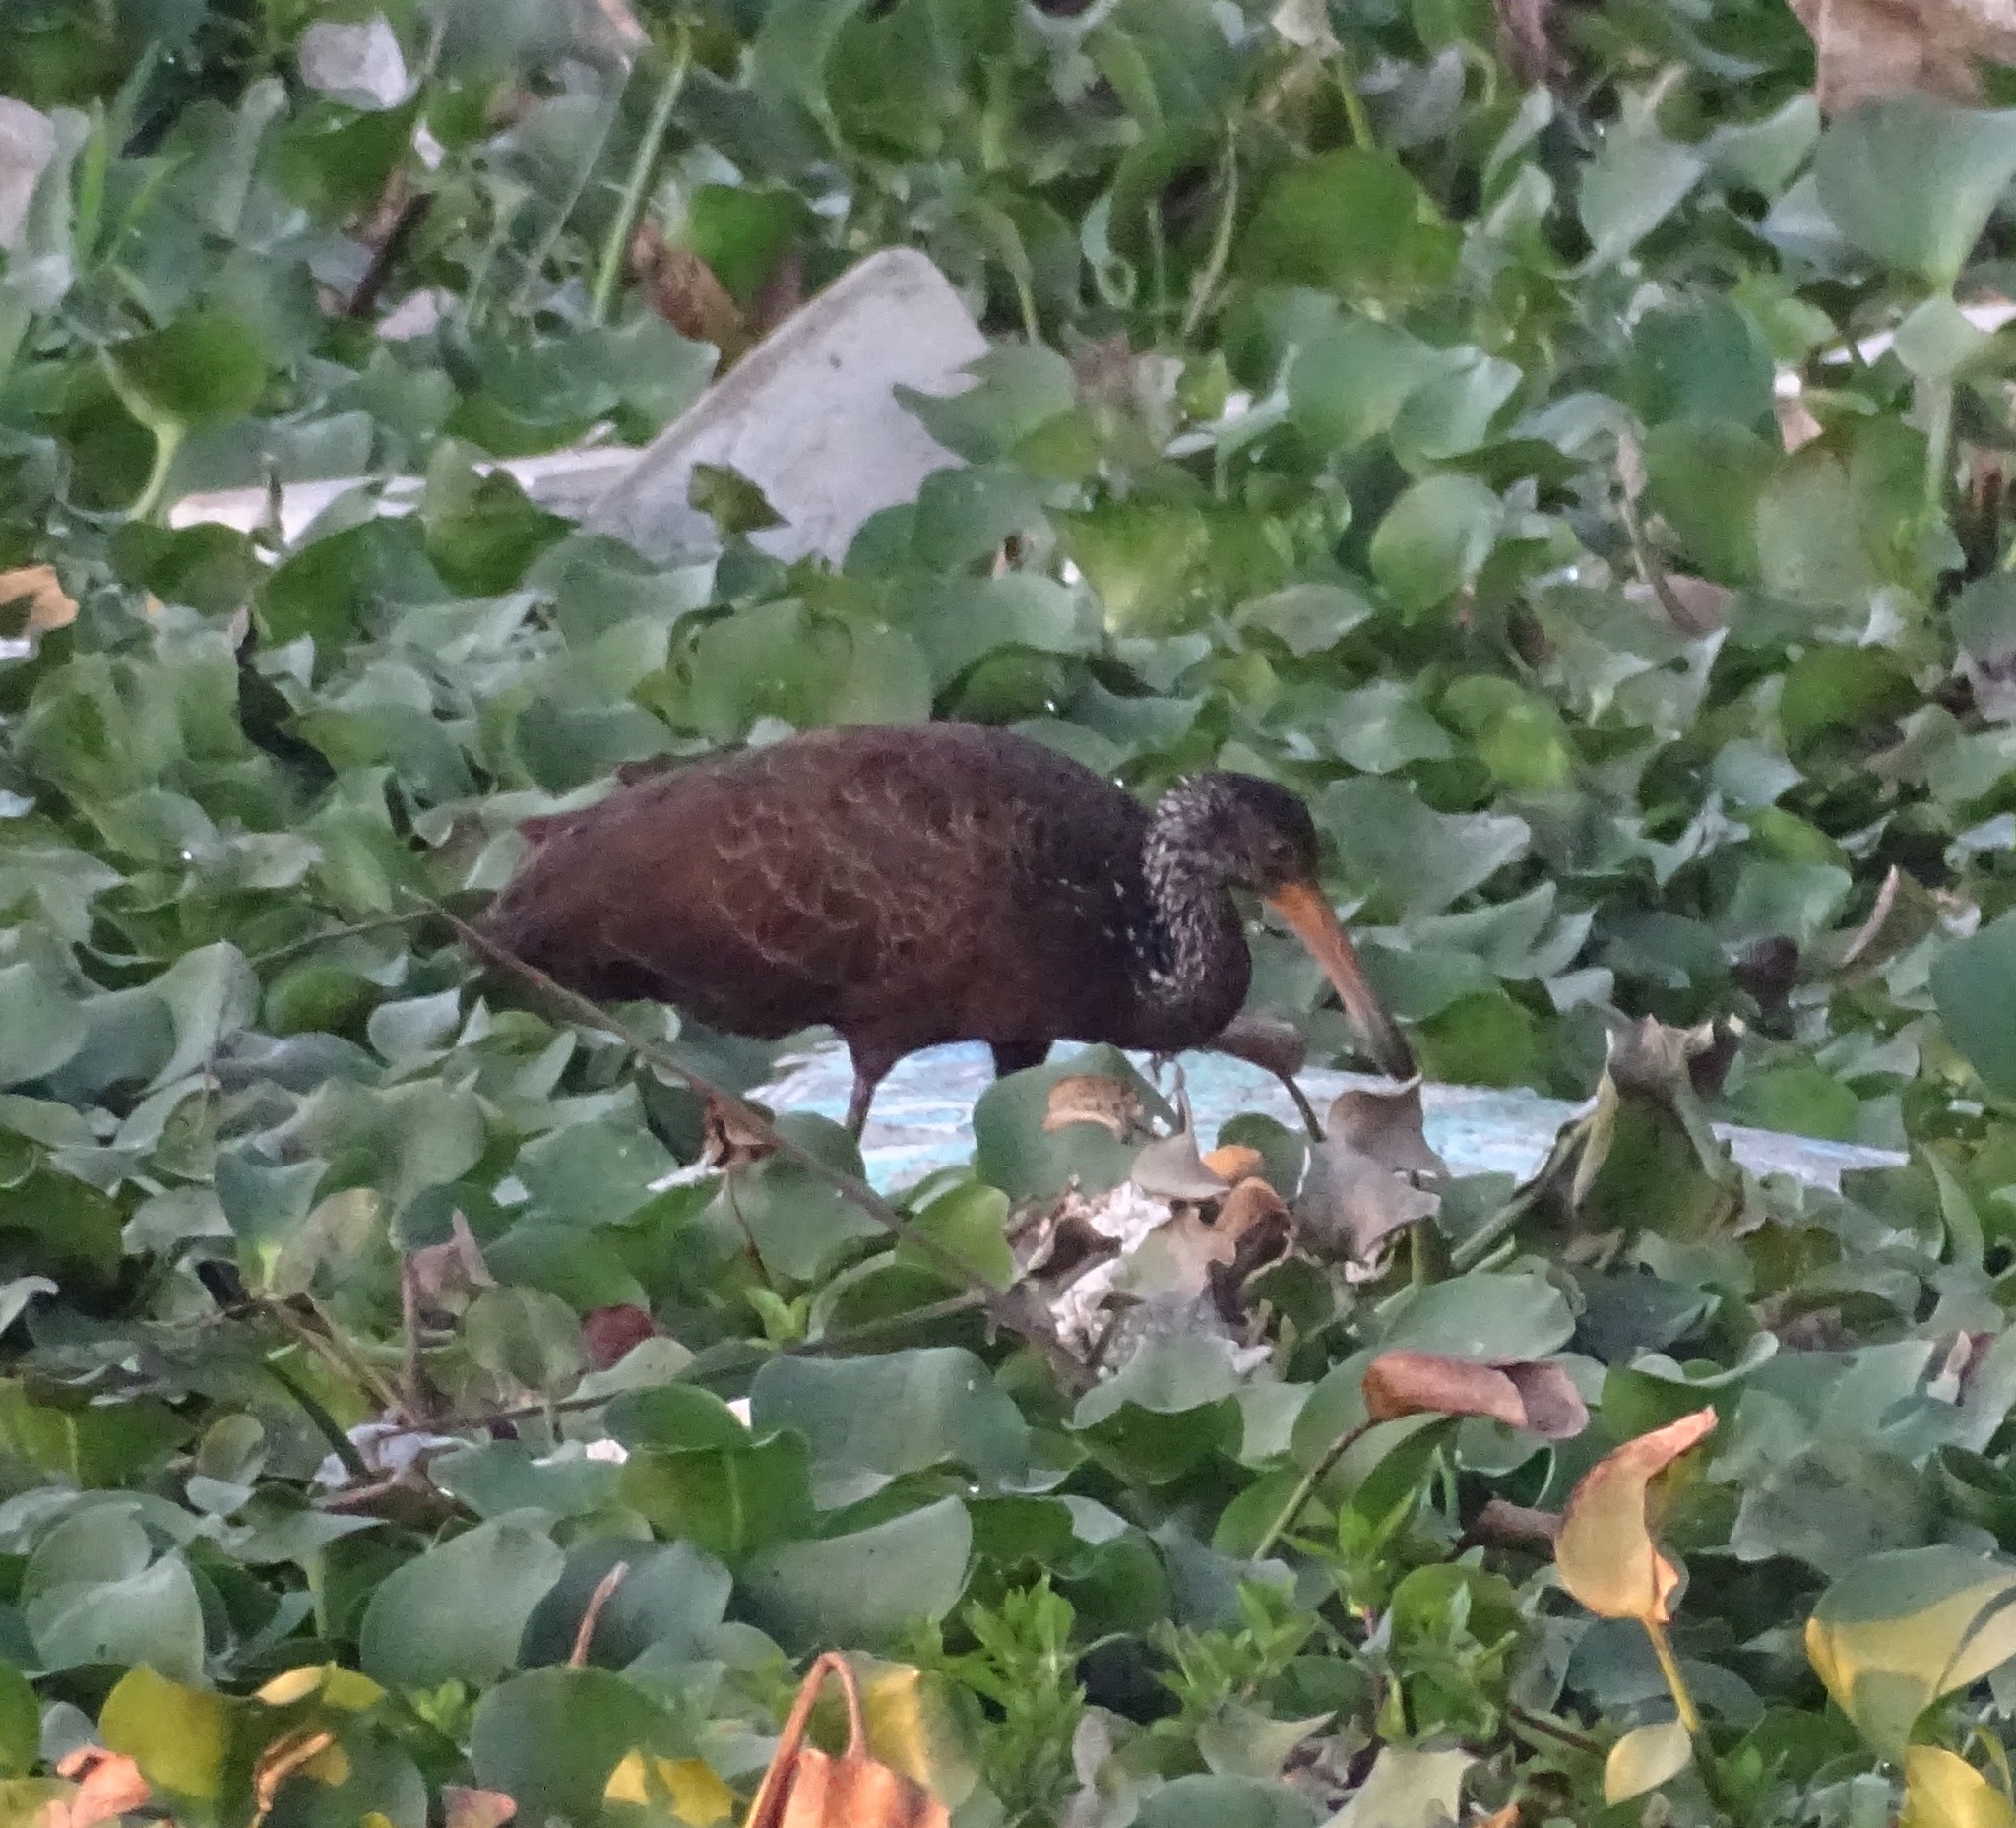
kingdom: Animalia
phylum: Chordata
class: Aves
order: Gruiformes
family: Aramidae
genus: Aramus
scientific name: Aramus guarauna
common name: Limpkin
